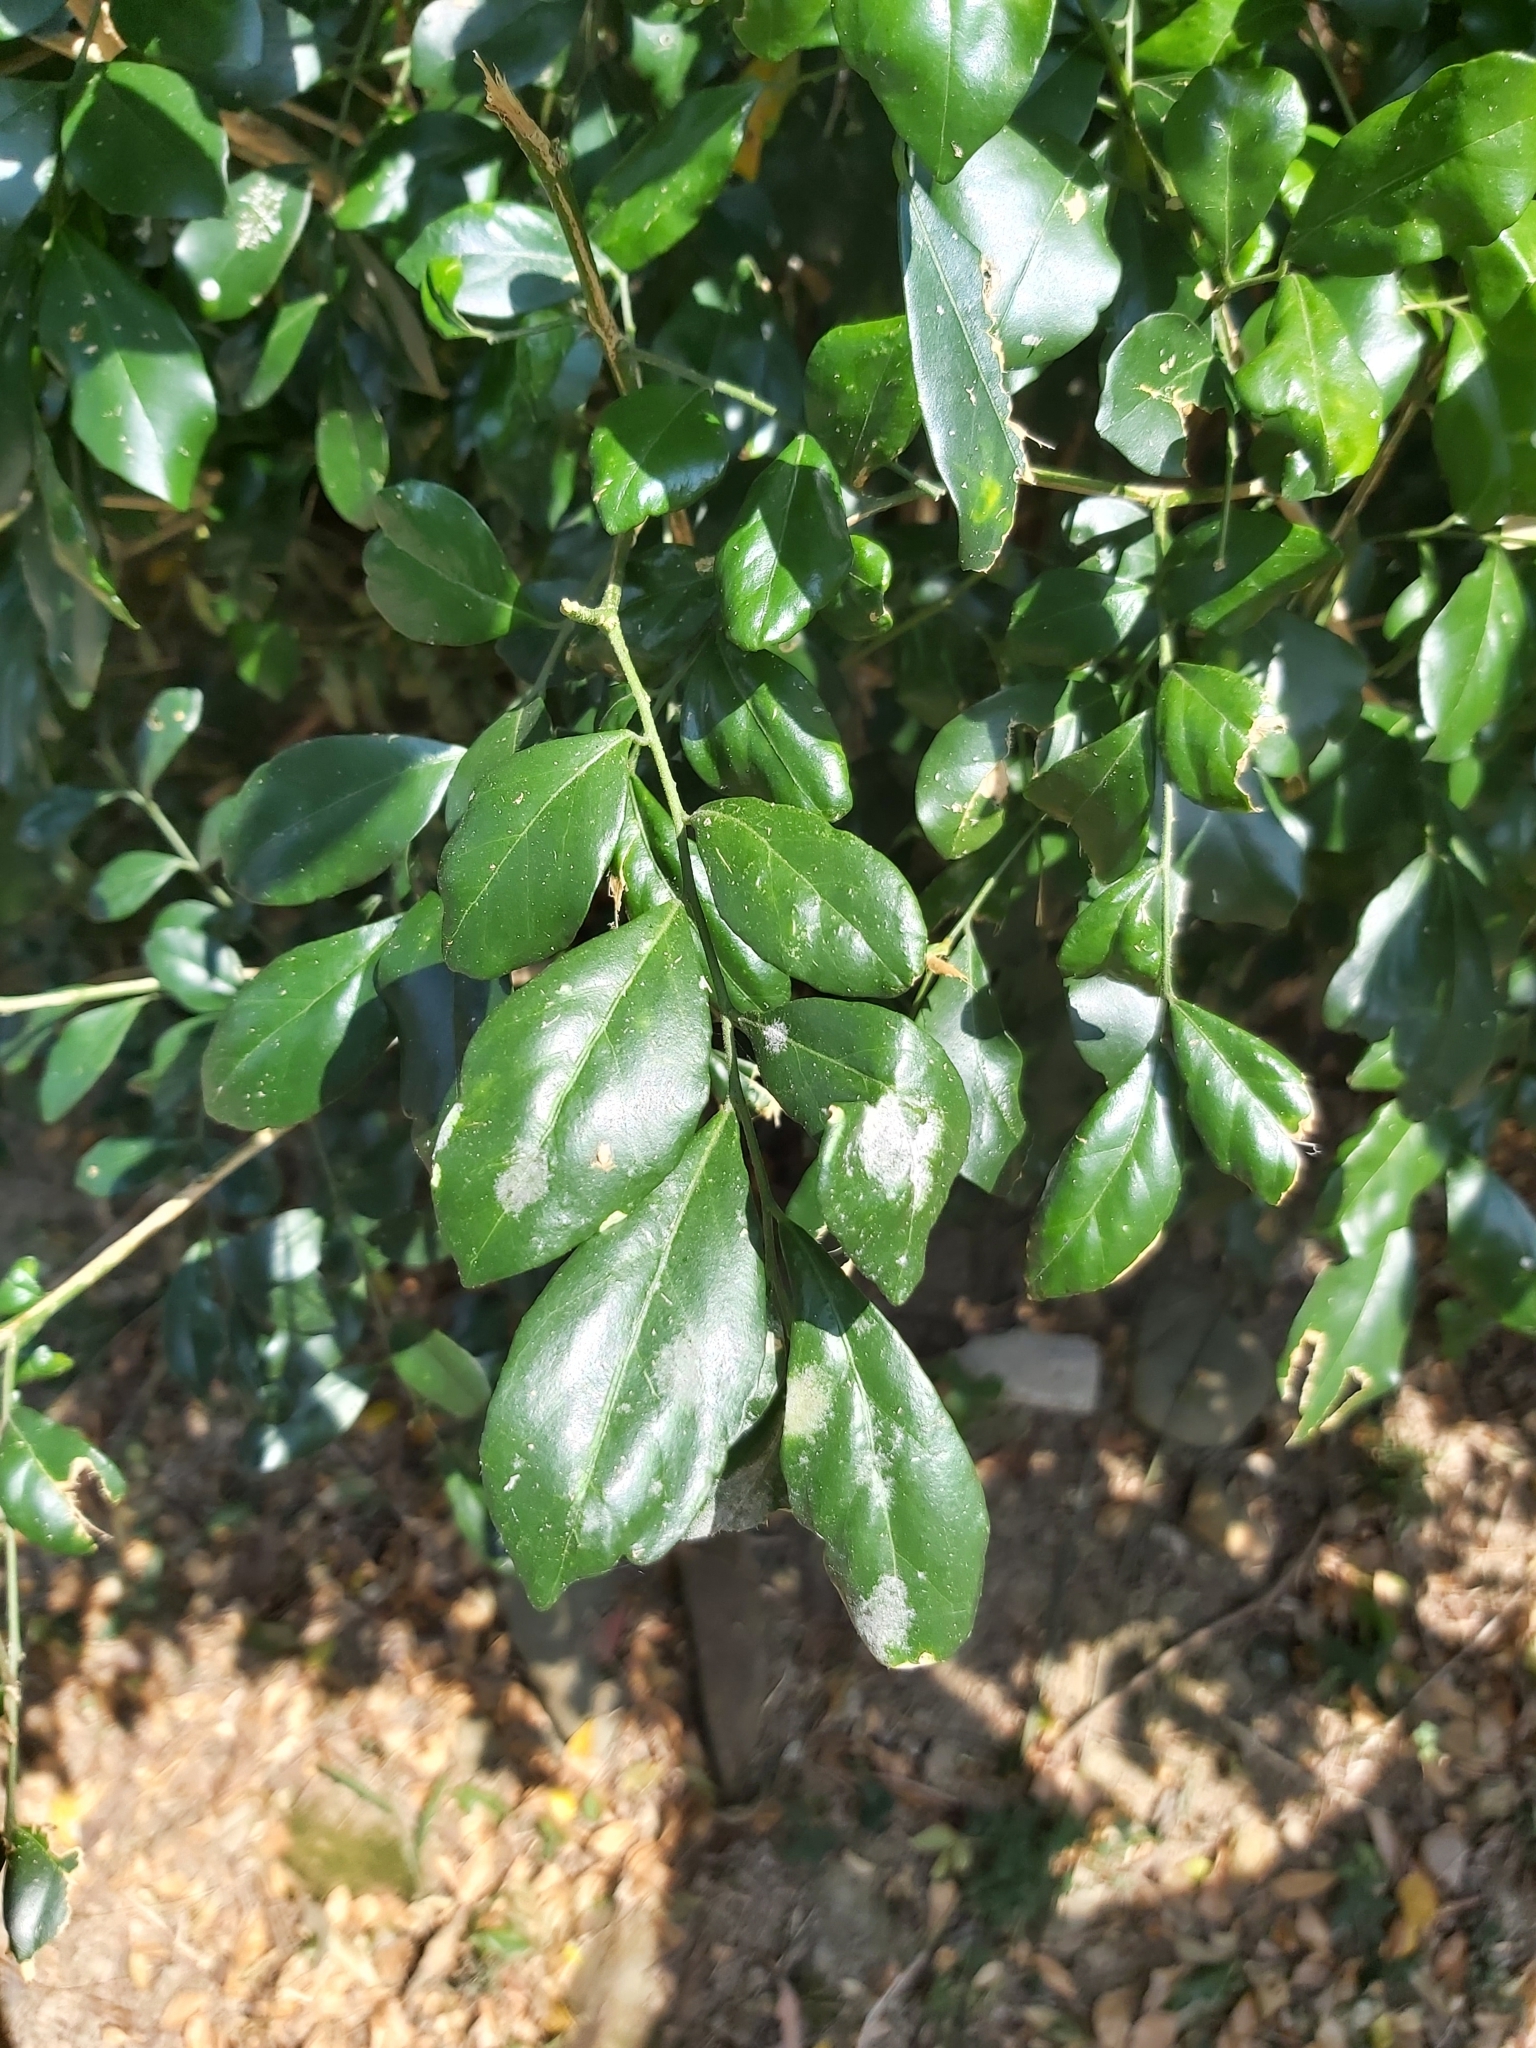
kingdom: Plantae
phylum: Tracheophyta
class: Magnoliopsida
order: Sapindales
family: Rutaceae
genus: Murraya
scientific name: Murraya paniculata
